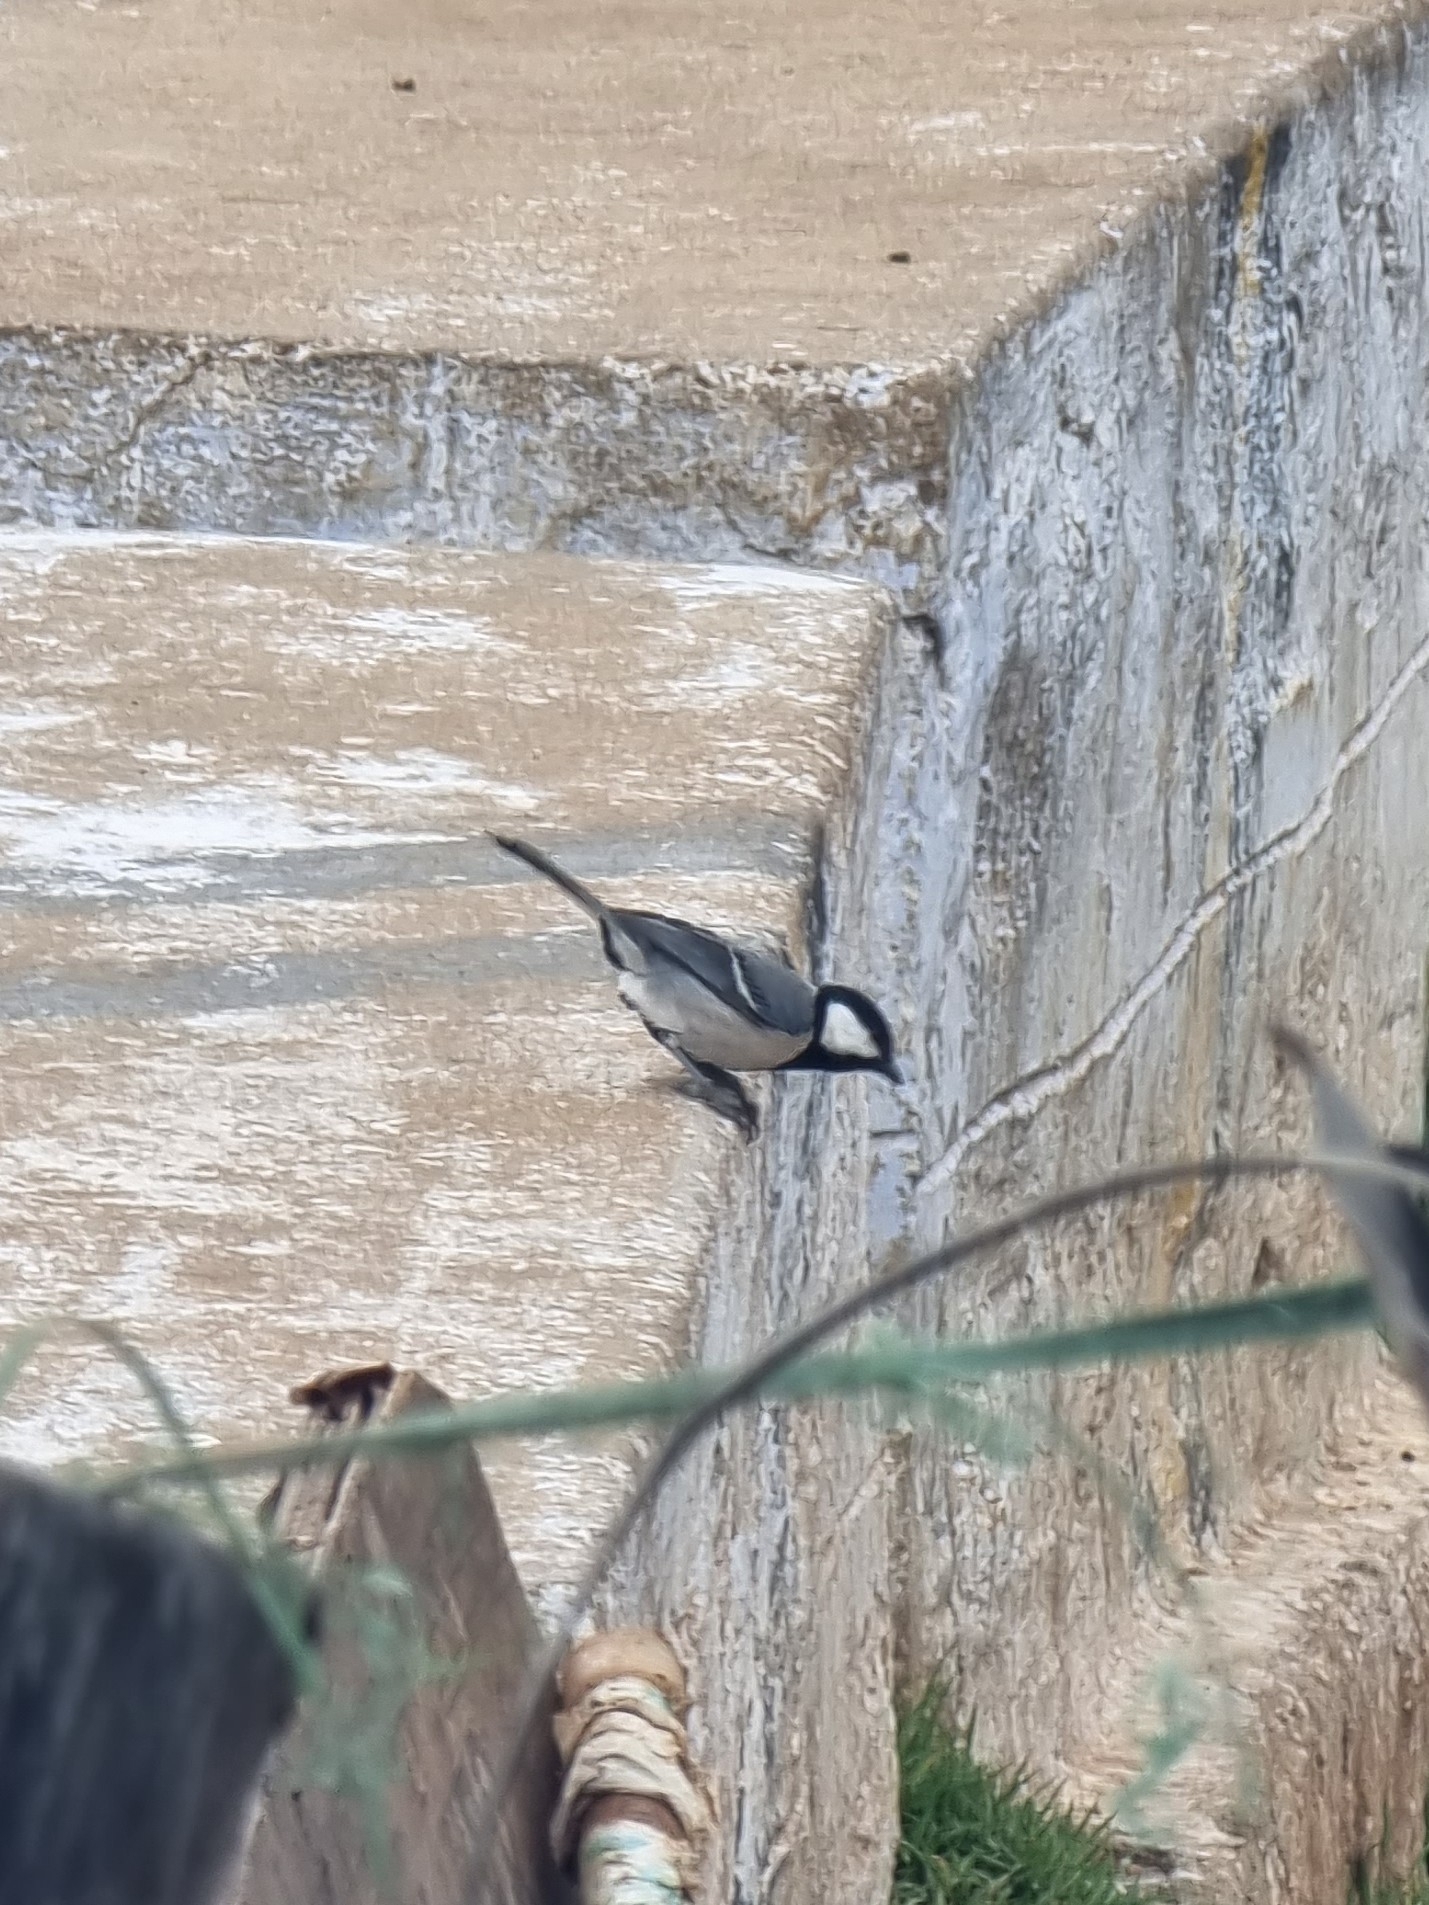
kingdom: Animalia
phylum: Chordata
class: Aves
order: Passeriformes
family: Paridae
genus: Parus
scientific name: Parus cinereus
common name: Cinereous tit
